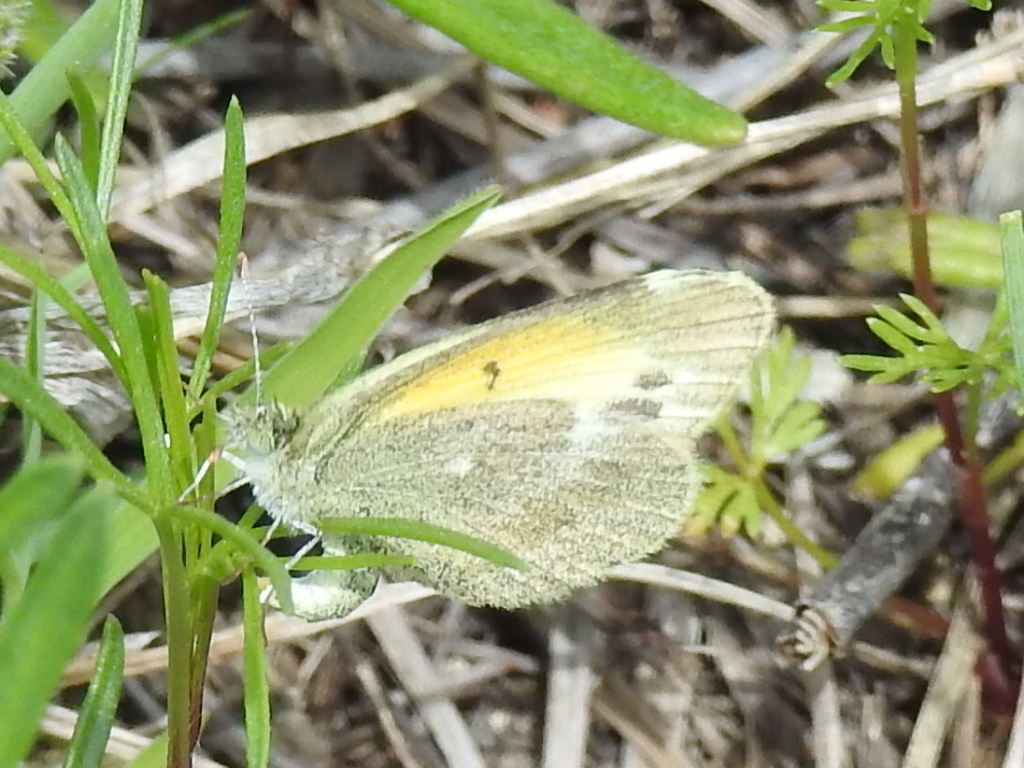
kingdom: Animalia
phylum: Arthropoda
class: Insecta
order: Lepidoptera
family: Pieridae
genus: Nathalis
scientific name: Nathalis iole
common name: Dainty sulphur
